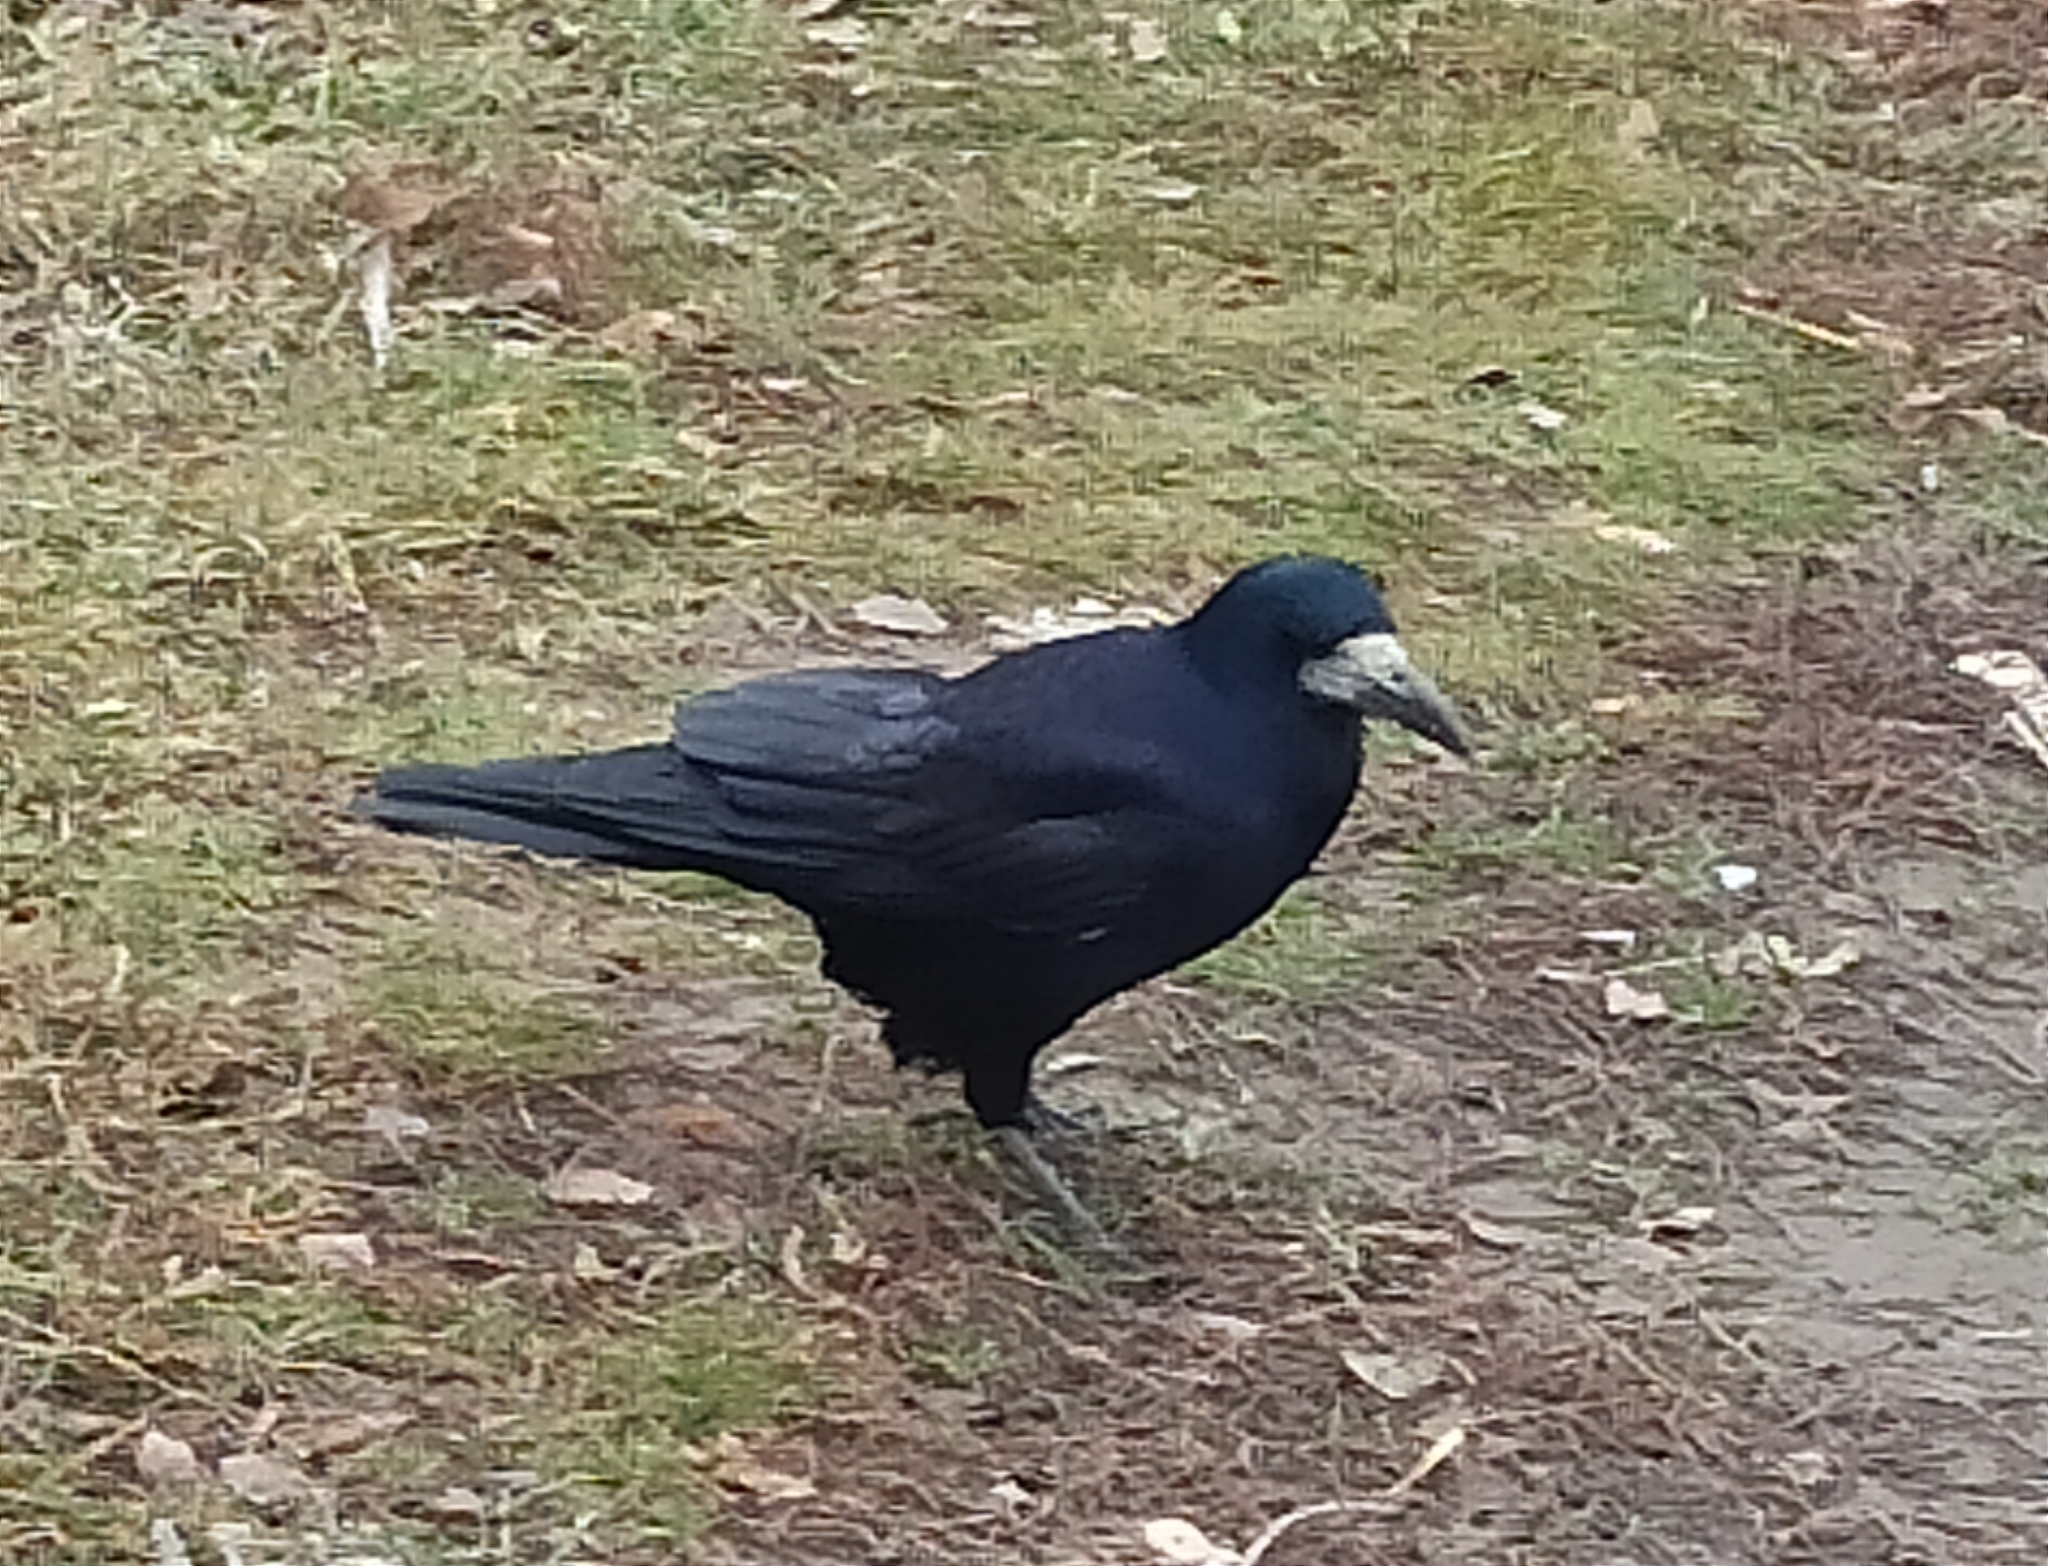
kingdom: Animalia
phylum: Chordata
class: Aves
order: Passeriformes
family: Corvidae
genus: Corvus
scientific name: Corvus frugilegus
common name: Rook
